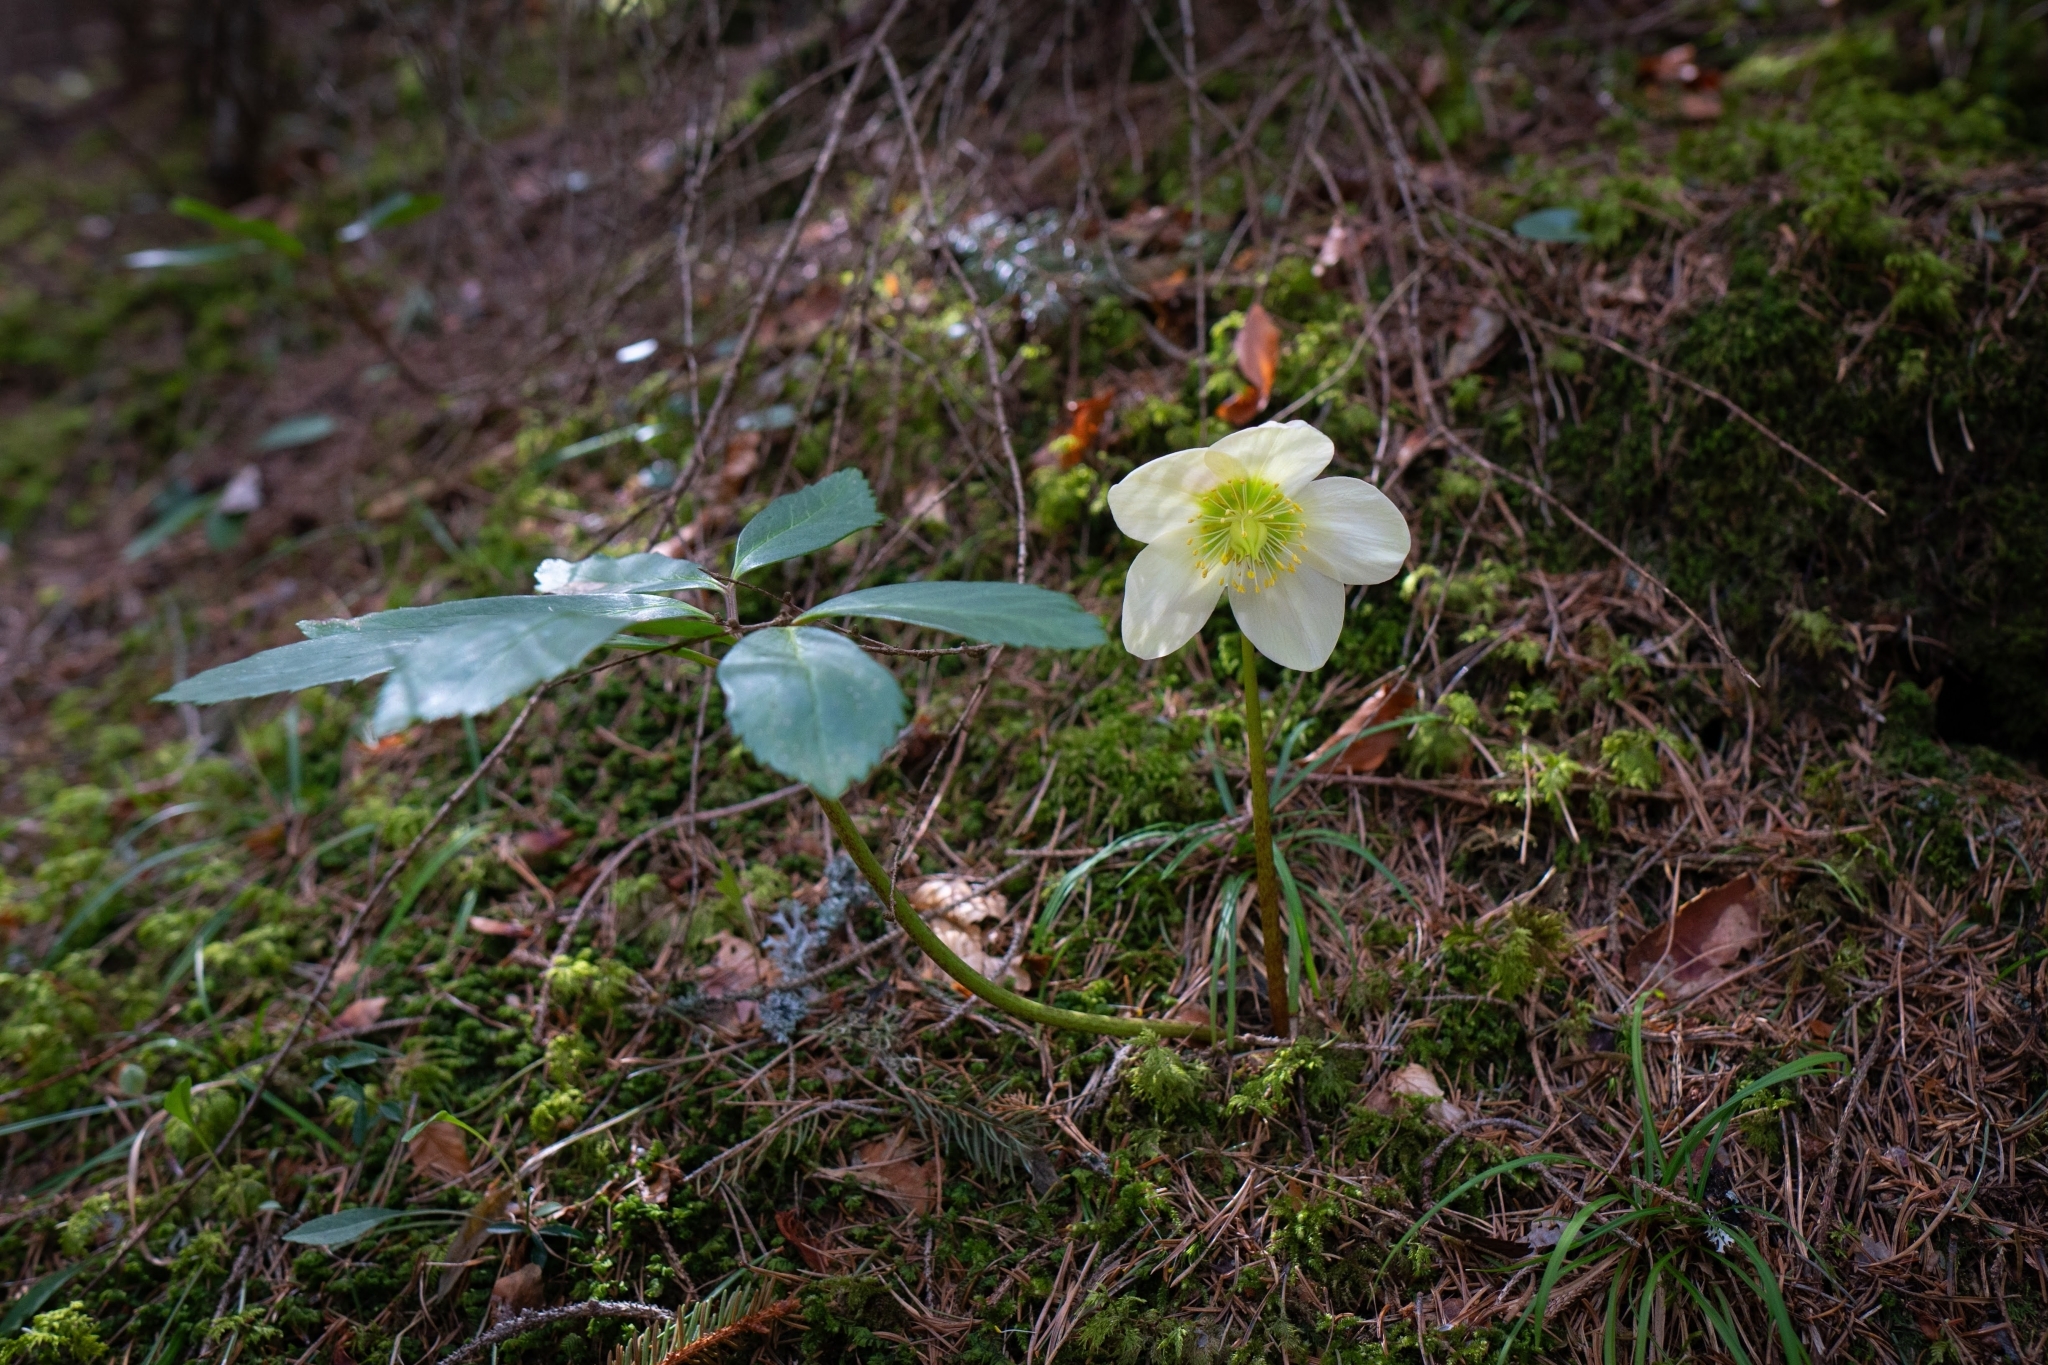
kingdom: Plantae
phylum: Tracheophyta
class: Magnoliopsida
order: Ranunculales
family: Ranunculaceae
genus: Helleborus
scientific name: Helleborus niger
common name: Black hellebore
